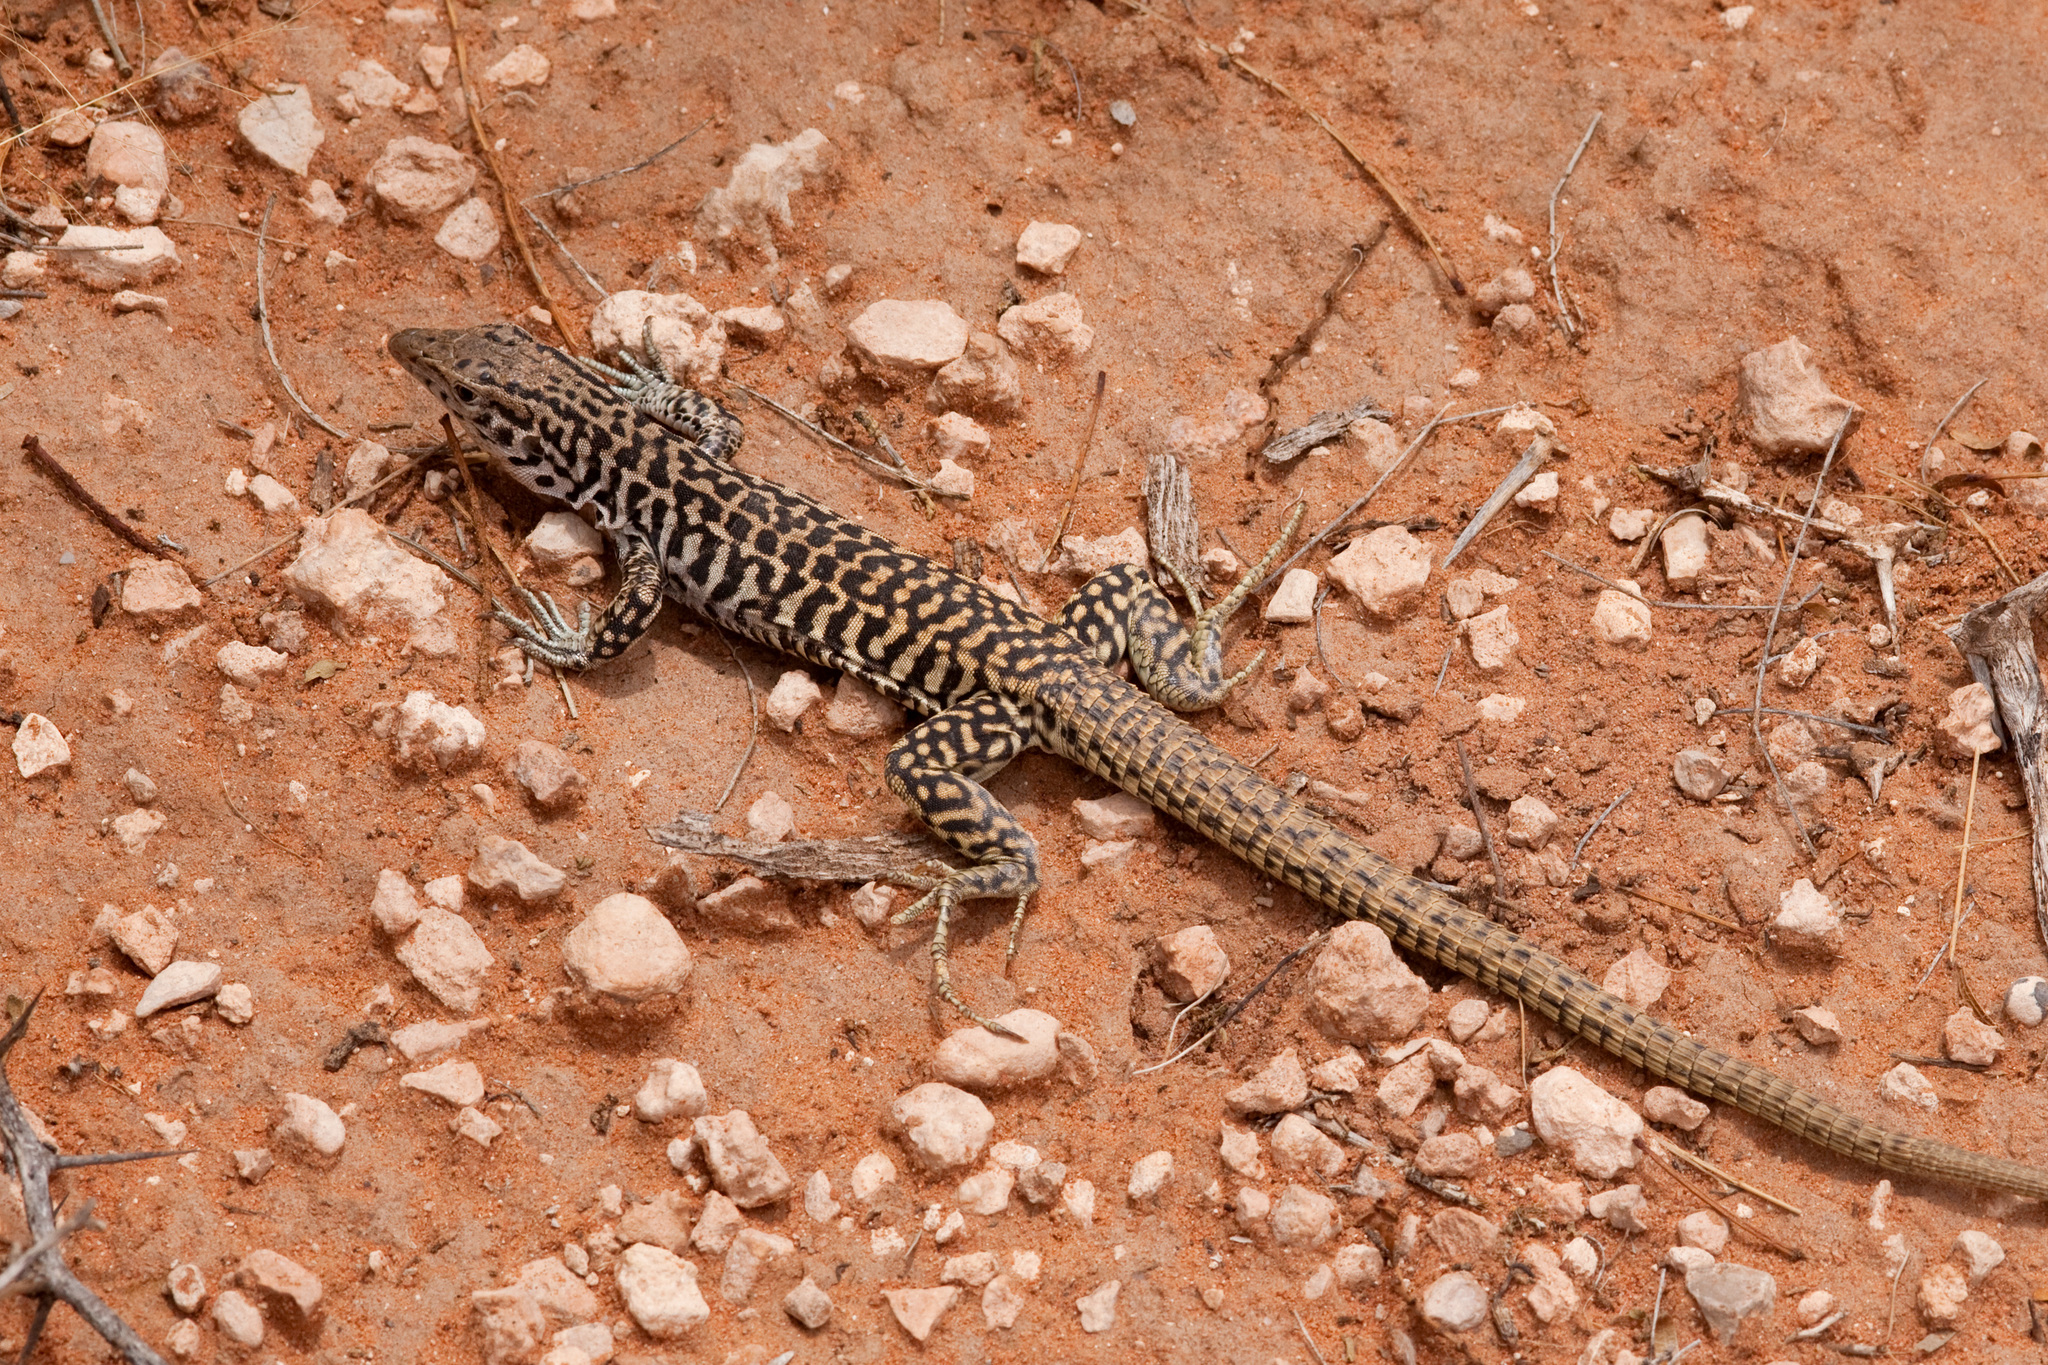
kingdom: Animalia
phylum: Chordata
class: Squamata
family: Teiidae
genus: Aspidoscelis
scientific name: Aspidoscelis tesselatus
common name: Common checkered whiptail [tesselata]
